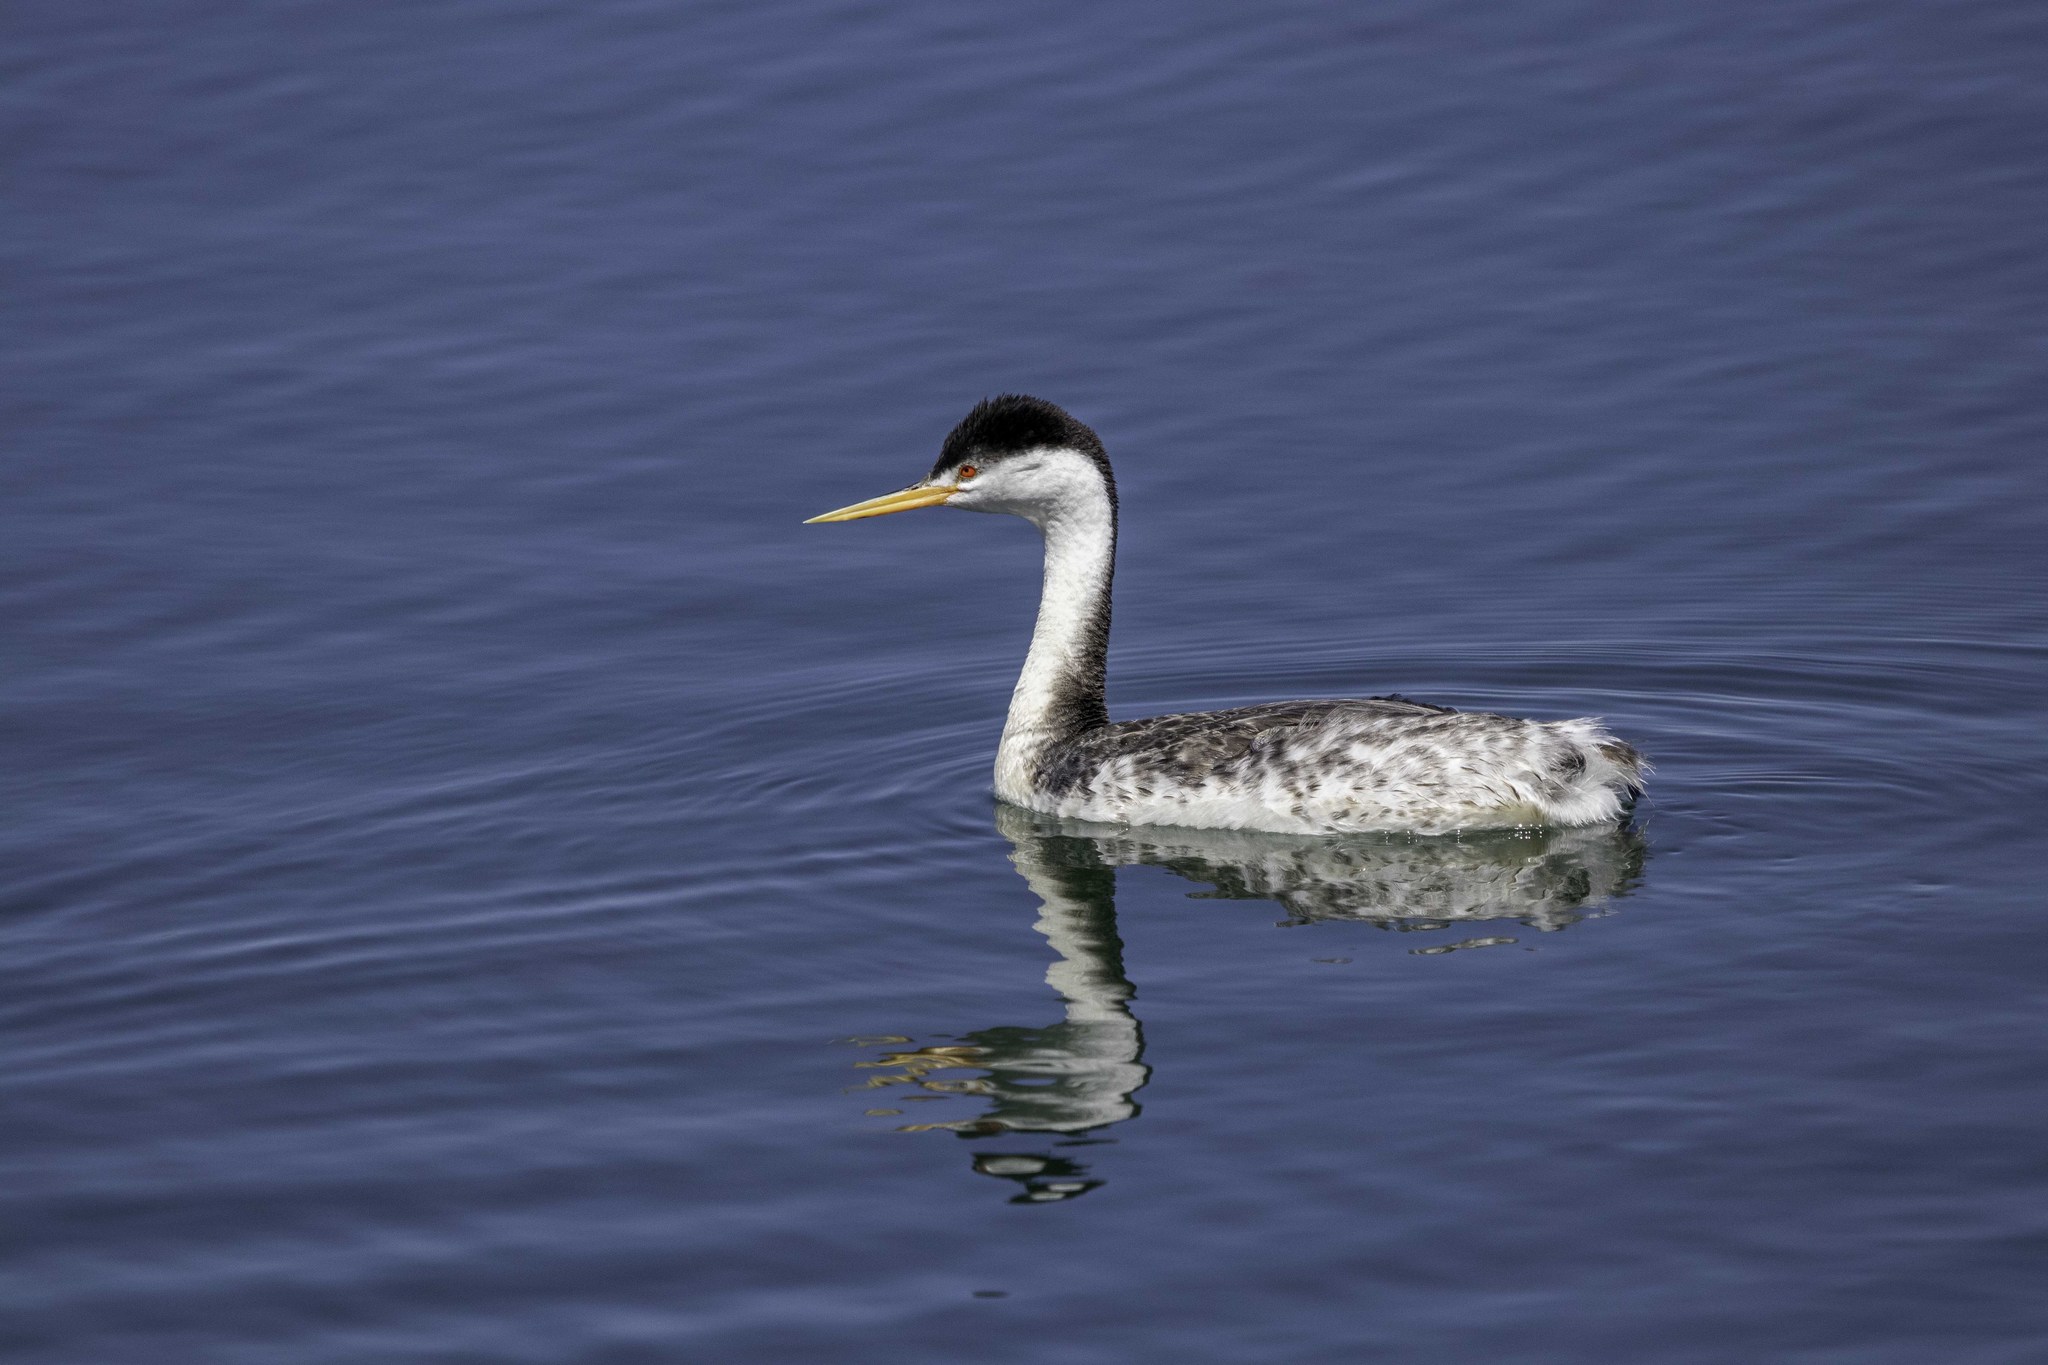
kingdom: Animalia
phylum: Chordata
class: Aves
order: Podicipediformes
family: Podicipedidae
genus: Aechmophorus
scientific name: Aechmophorus clarkii
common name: Clark's grebe
